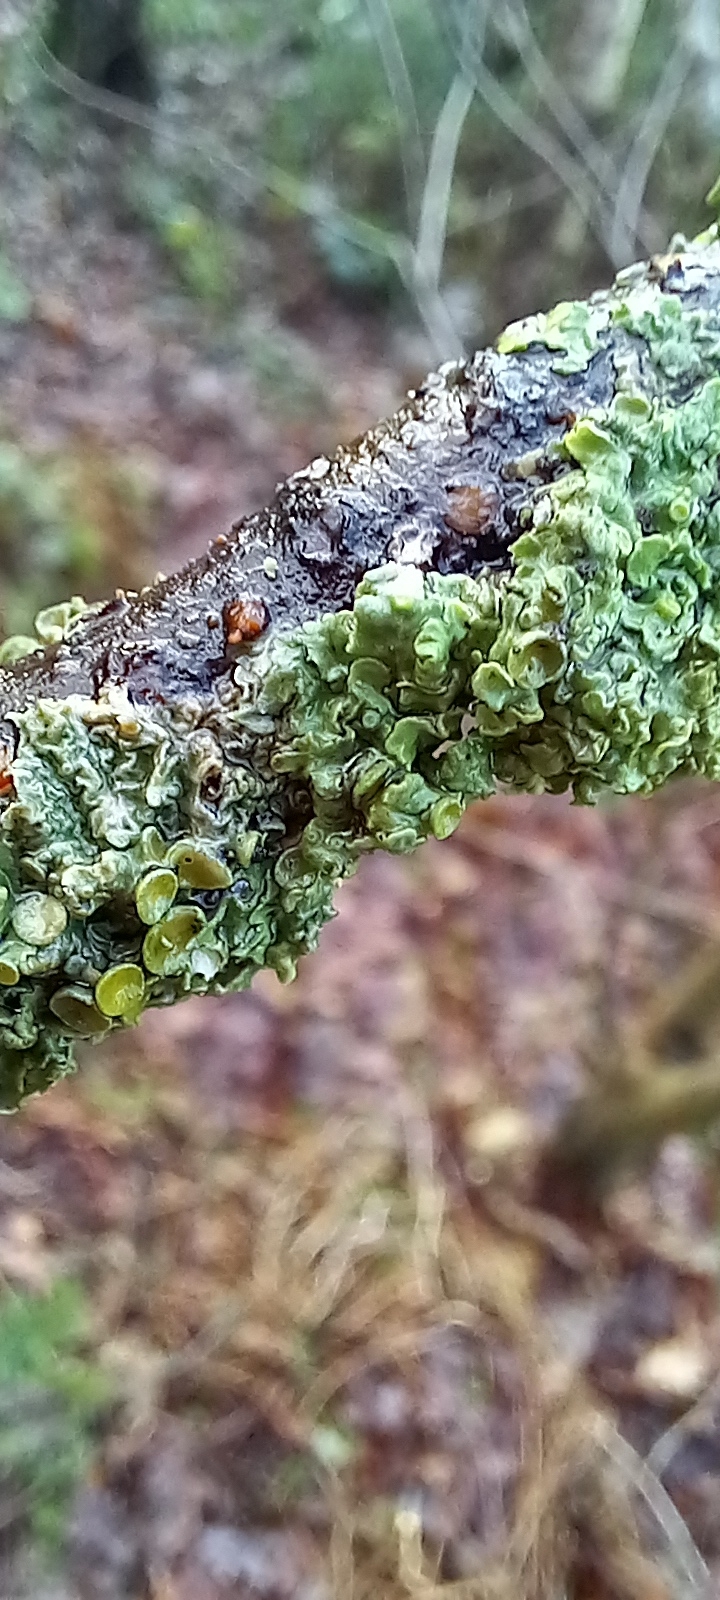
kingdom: Fungi
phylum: Ascomycota
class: Lecanoromycetes
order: Teloschistales
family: Teloschistaceae
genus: Xanthoria
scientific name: Xanthoria parietina
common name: Common orange lichen
